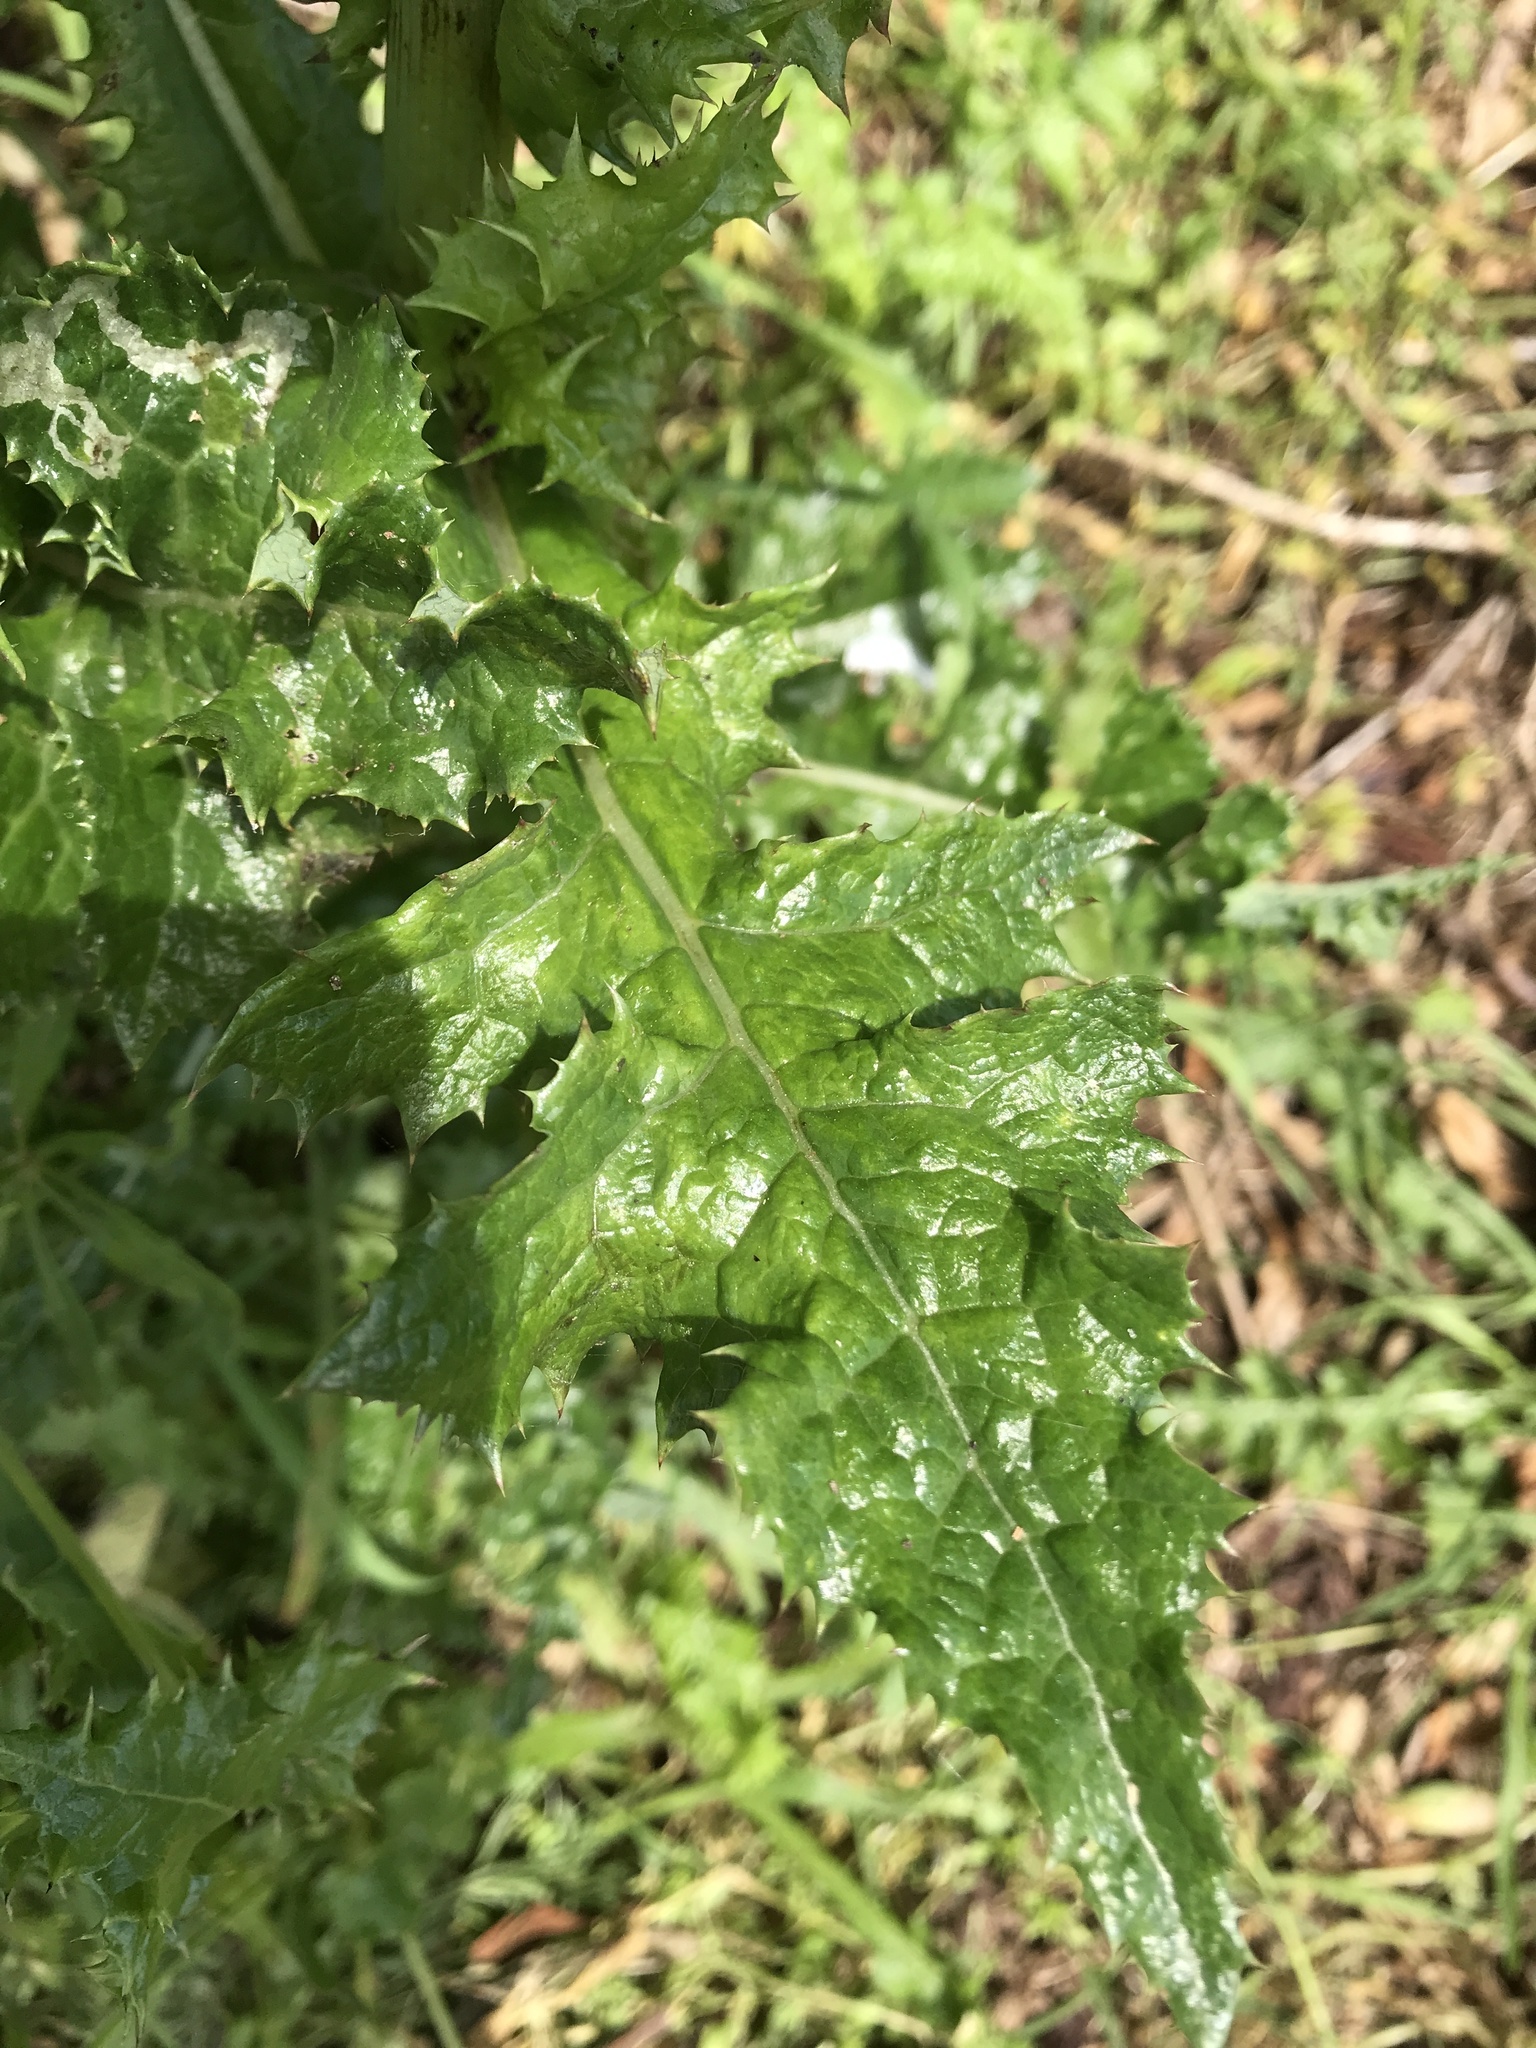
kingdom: Plantae
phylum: Tracheophyta
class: Magnoliopsida
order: Asterales
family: Asteraceae
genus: Sonchus
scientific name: Sonchus asper
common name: Prickly sow-thistle
